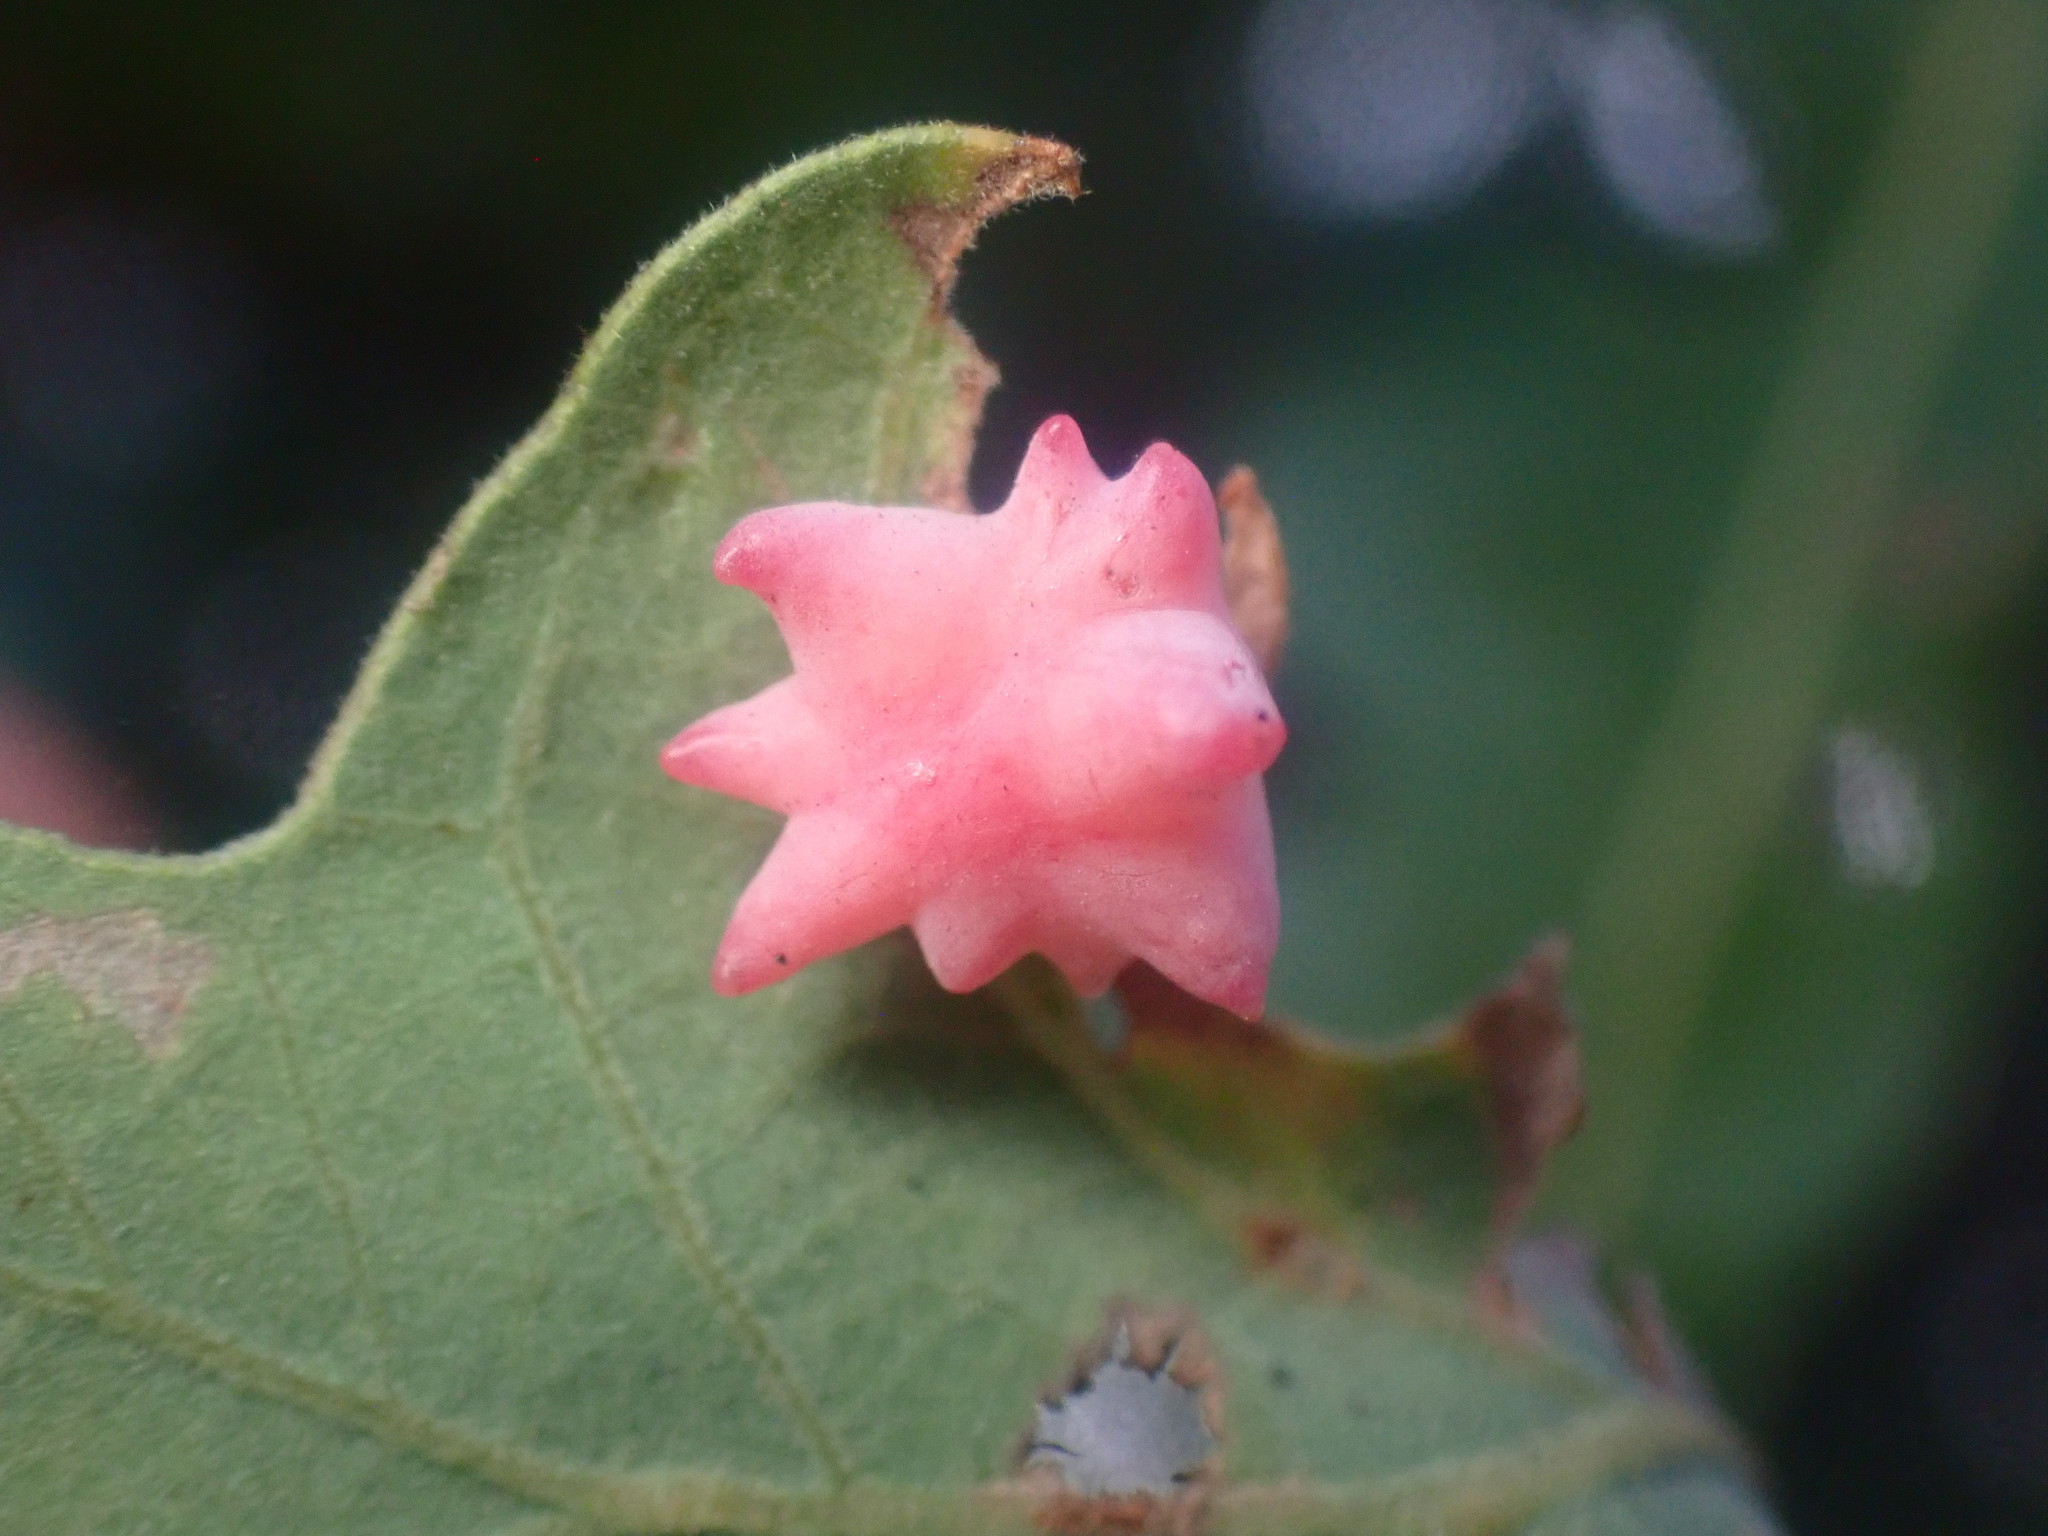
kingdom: Animalia
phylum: Arthropoda
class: Insecta
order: Hymenoptera
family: Cynipidae
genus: Cynips
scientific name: Cynips douglasi
